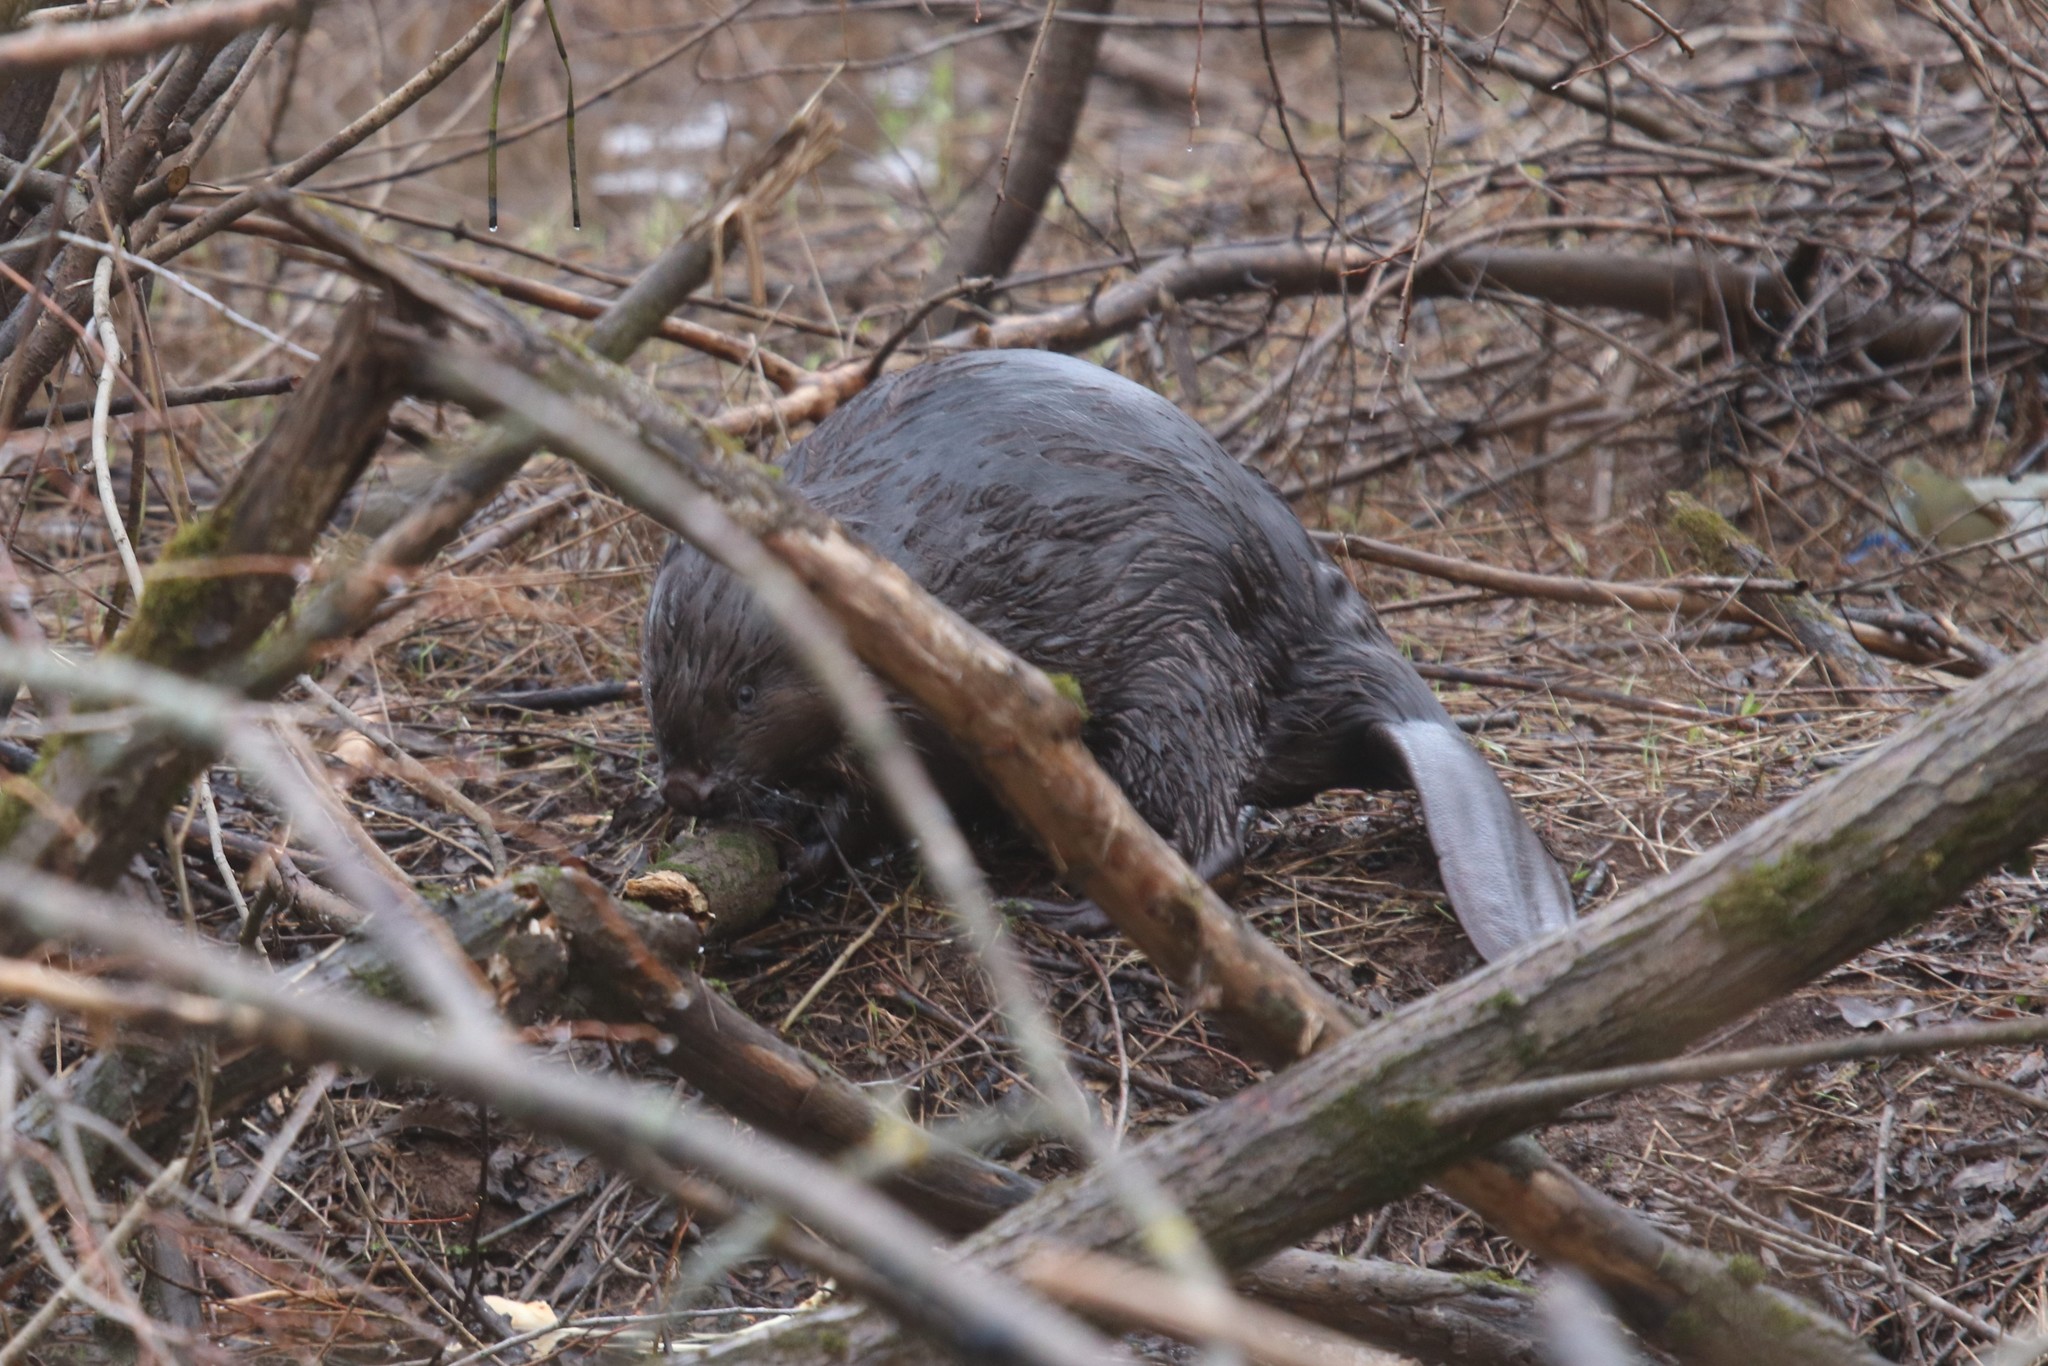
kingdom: Animalia
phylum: Chordata
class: Mammalia
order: Rodentia
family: Castoridae
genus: Castor
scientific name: Castor fiber
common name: Eurasian beaver
